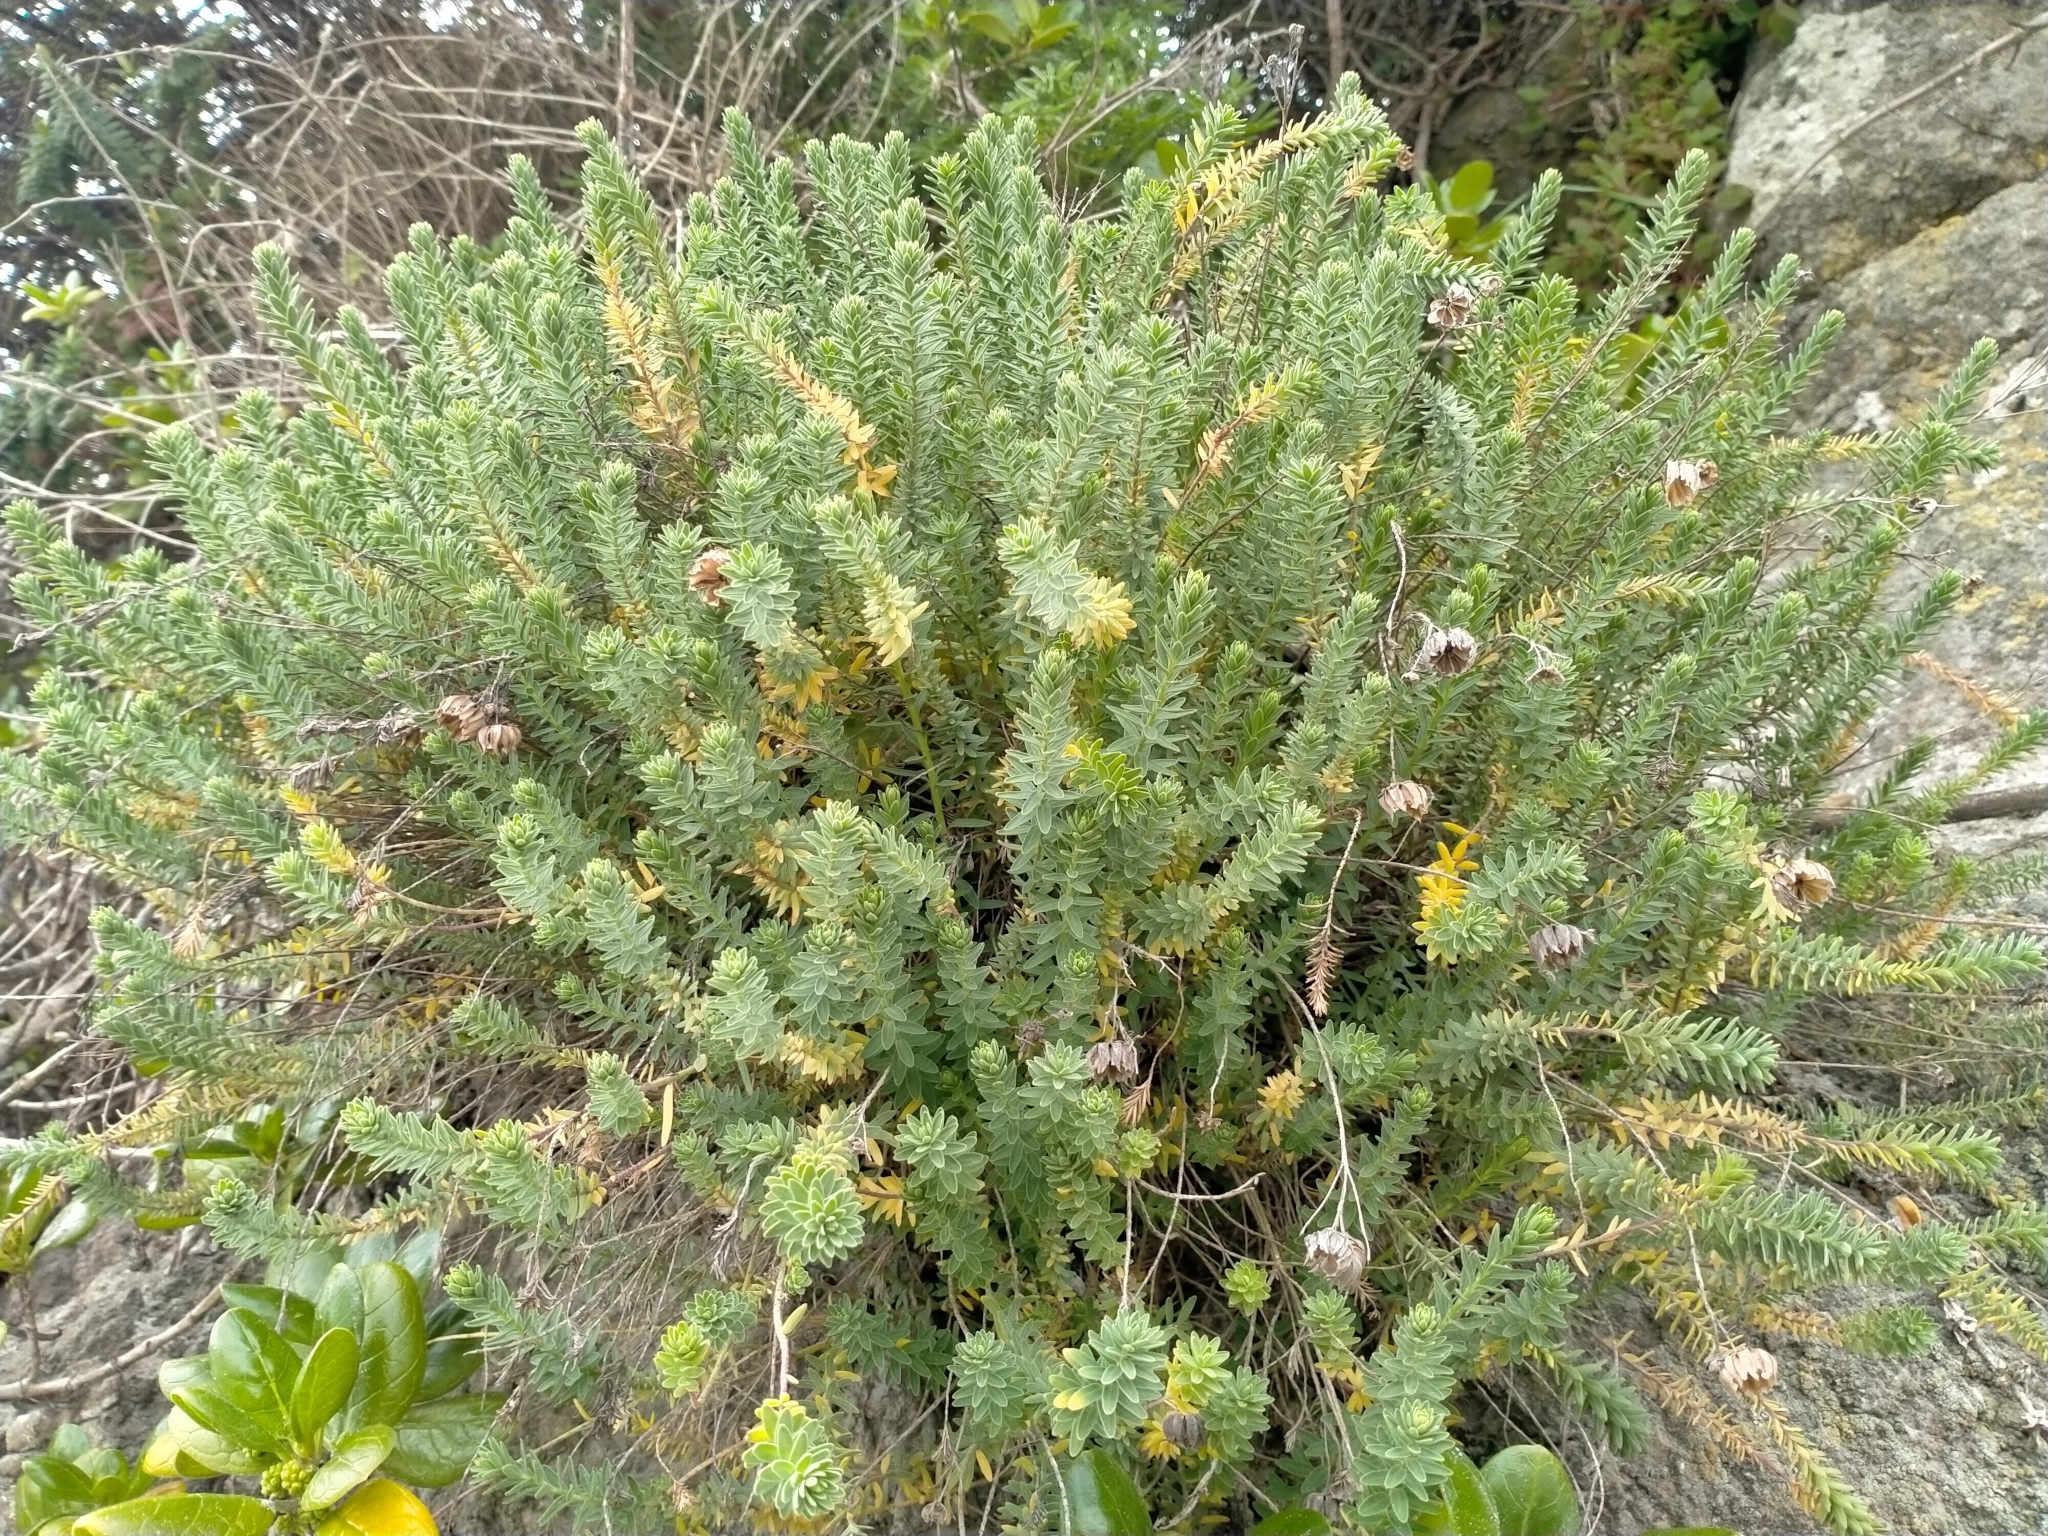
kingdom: Plantae
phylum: Tracheophyta
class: Magnoliopsida
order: Malpighiales
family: Linaceae
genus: Linum
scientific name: Linum monogynum
